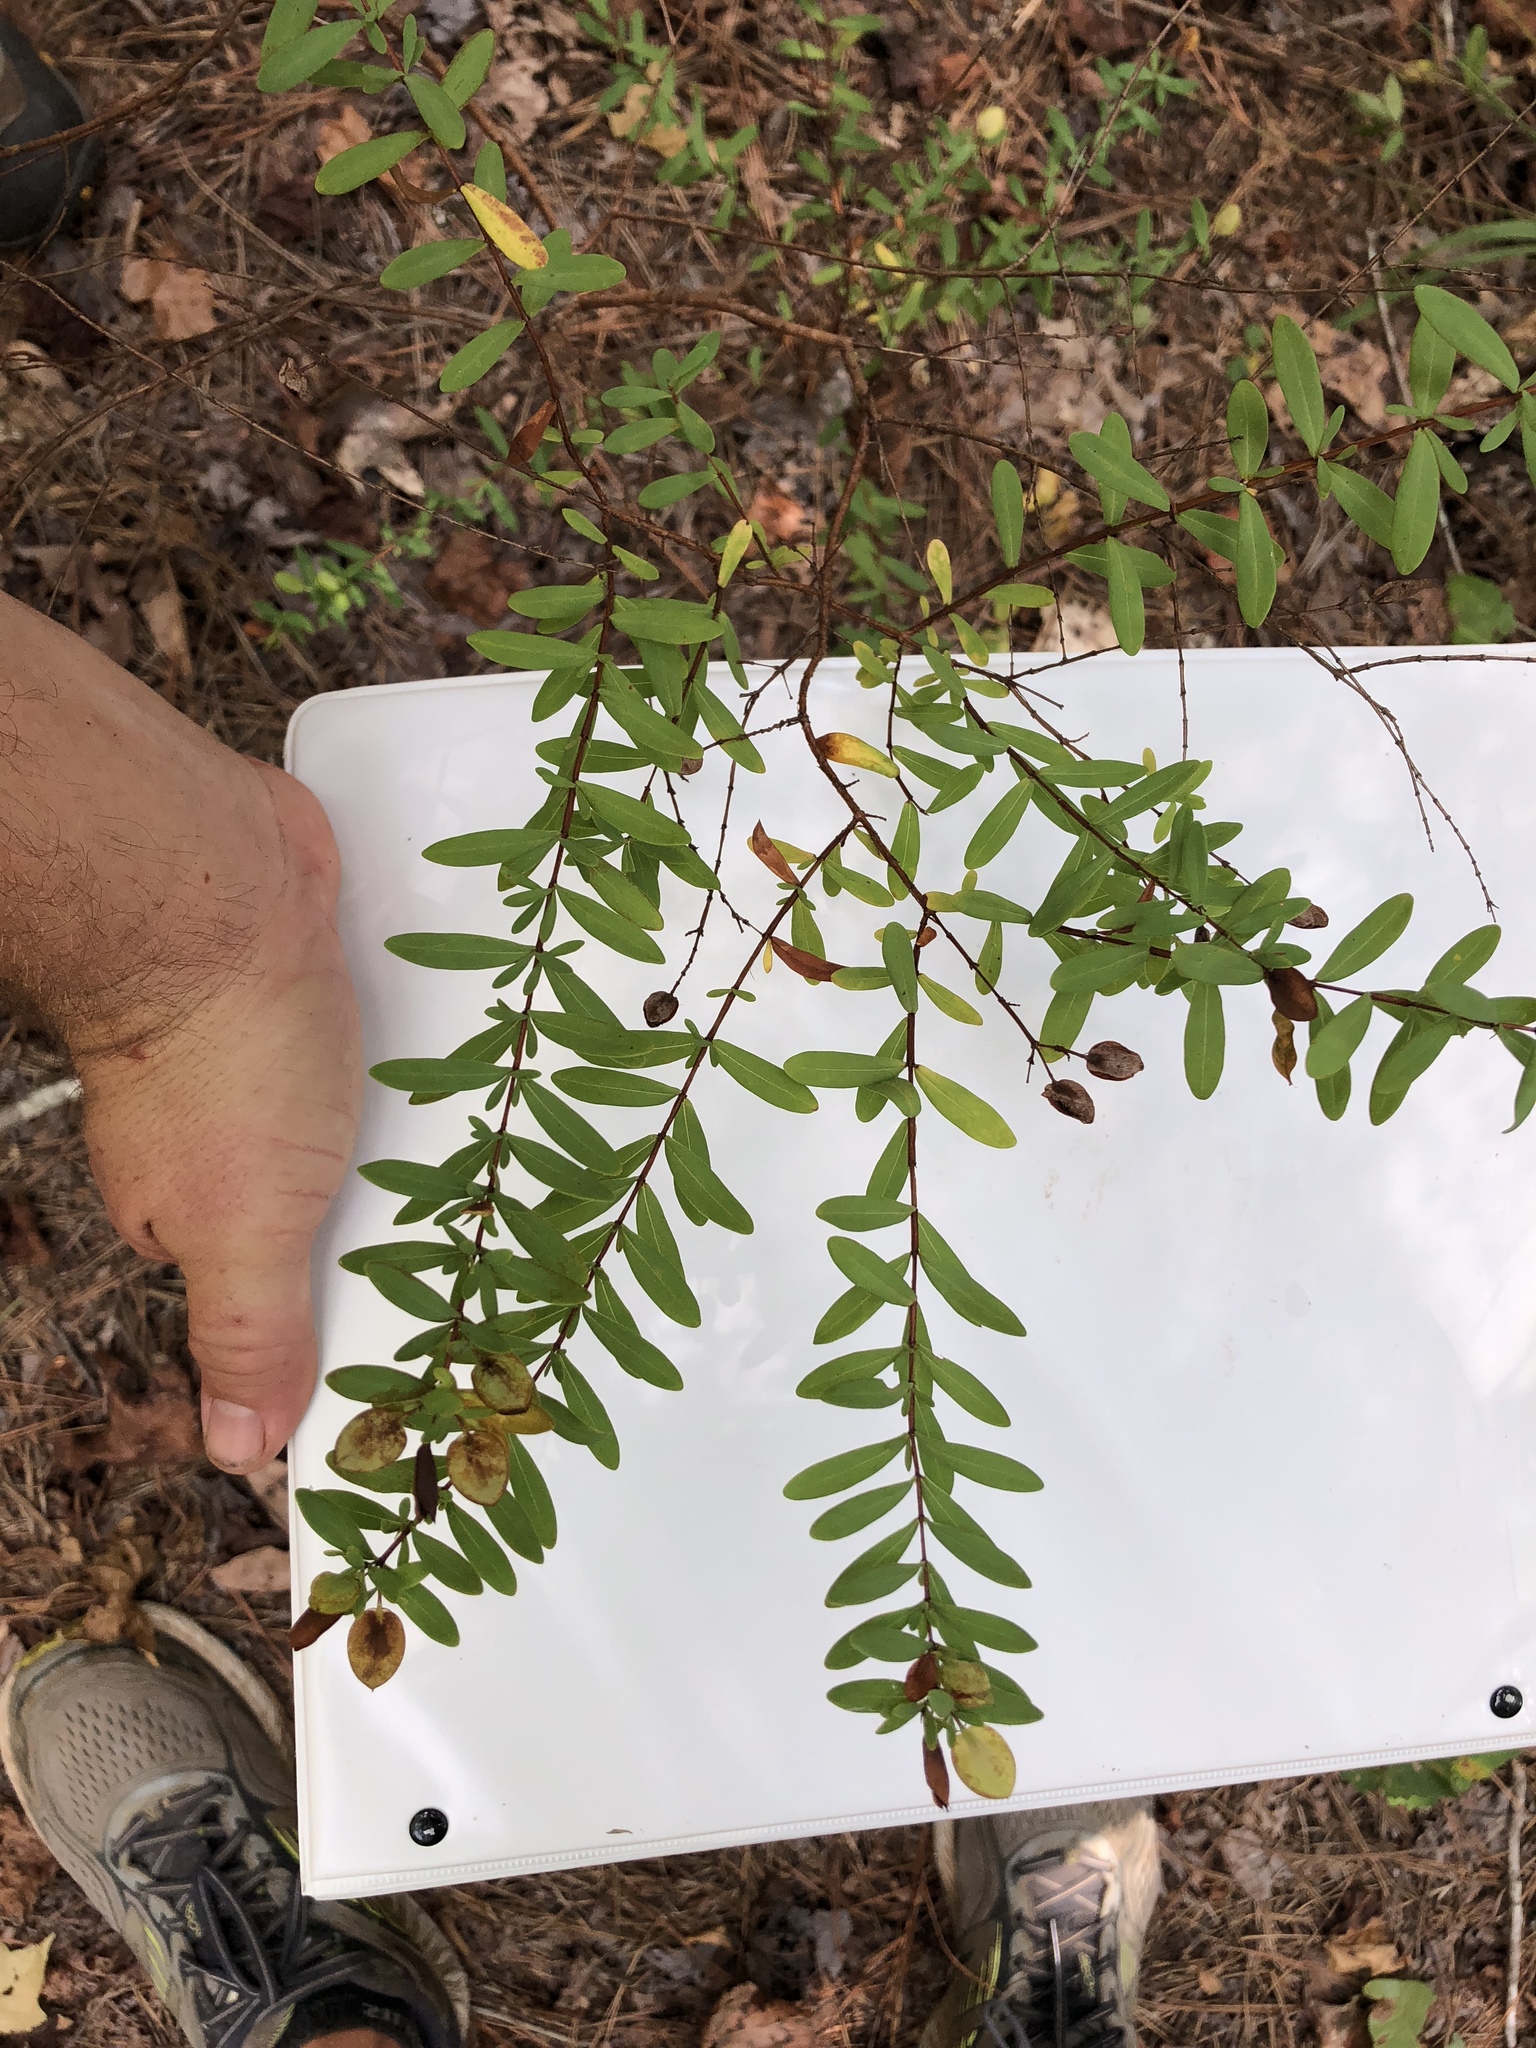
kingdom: Plantae
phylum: Tracheophyta
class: Magnoliopsida
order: Malpighiales
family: Hypericaceae
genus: Hypericum
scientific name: Hypericum hypericoides
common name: St. andrew's cross
